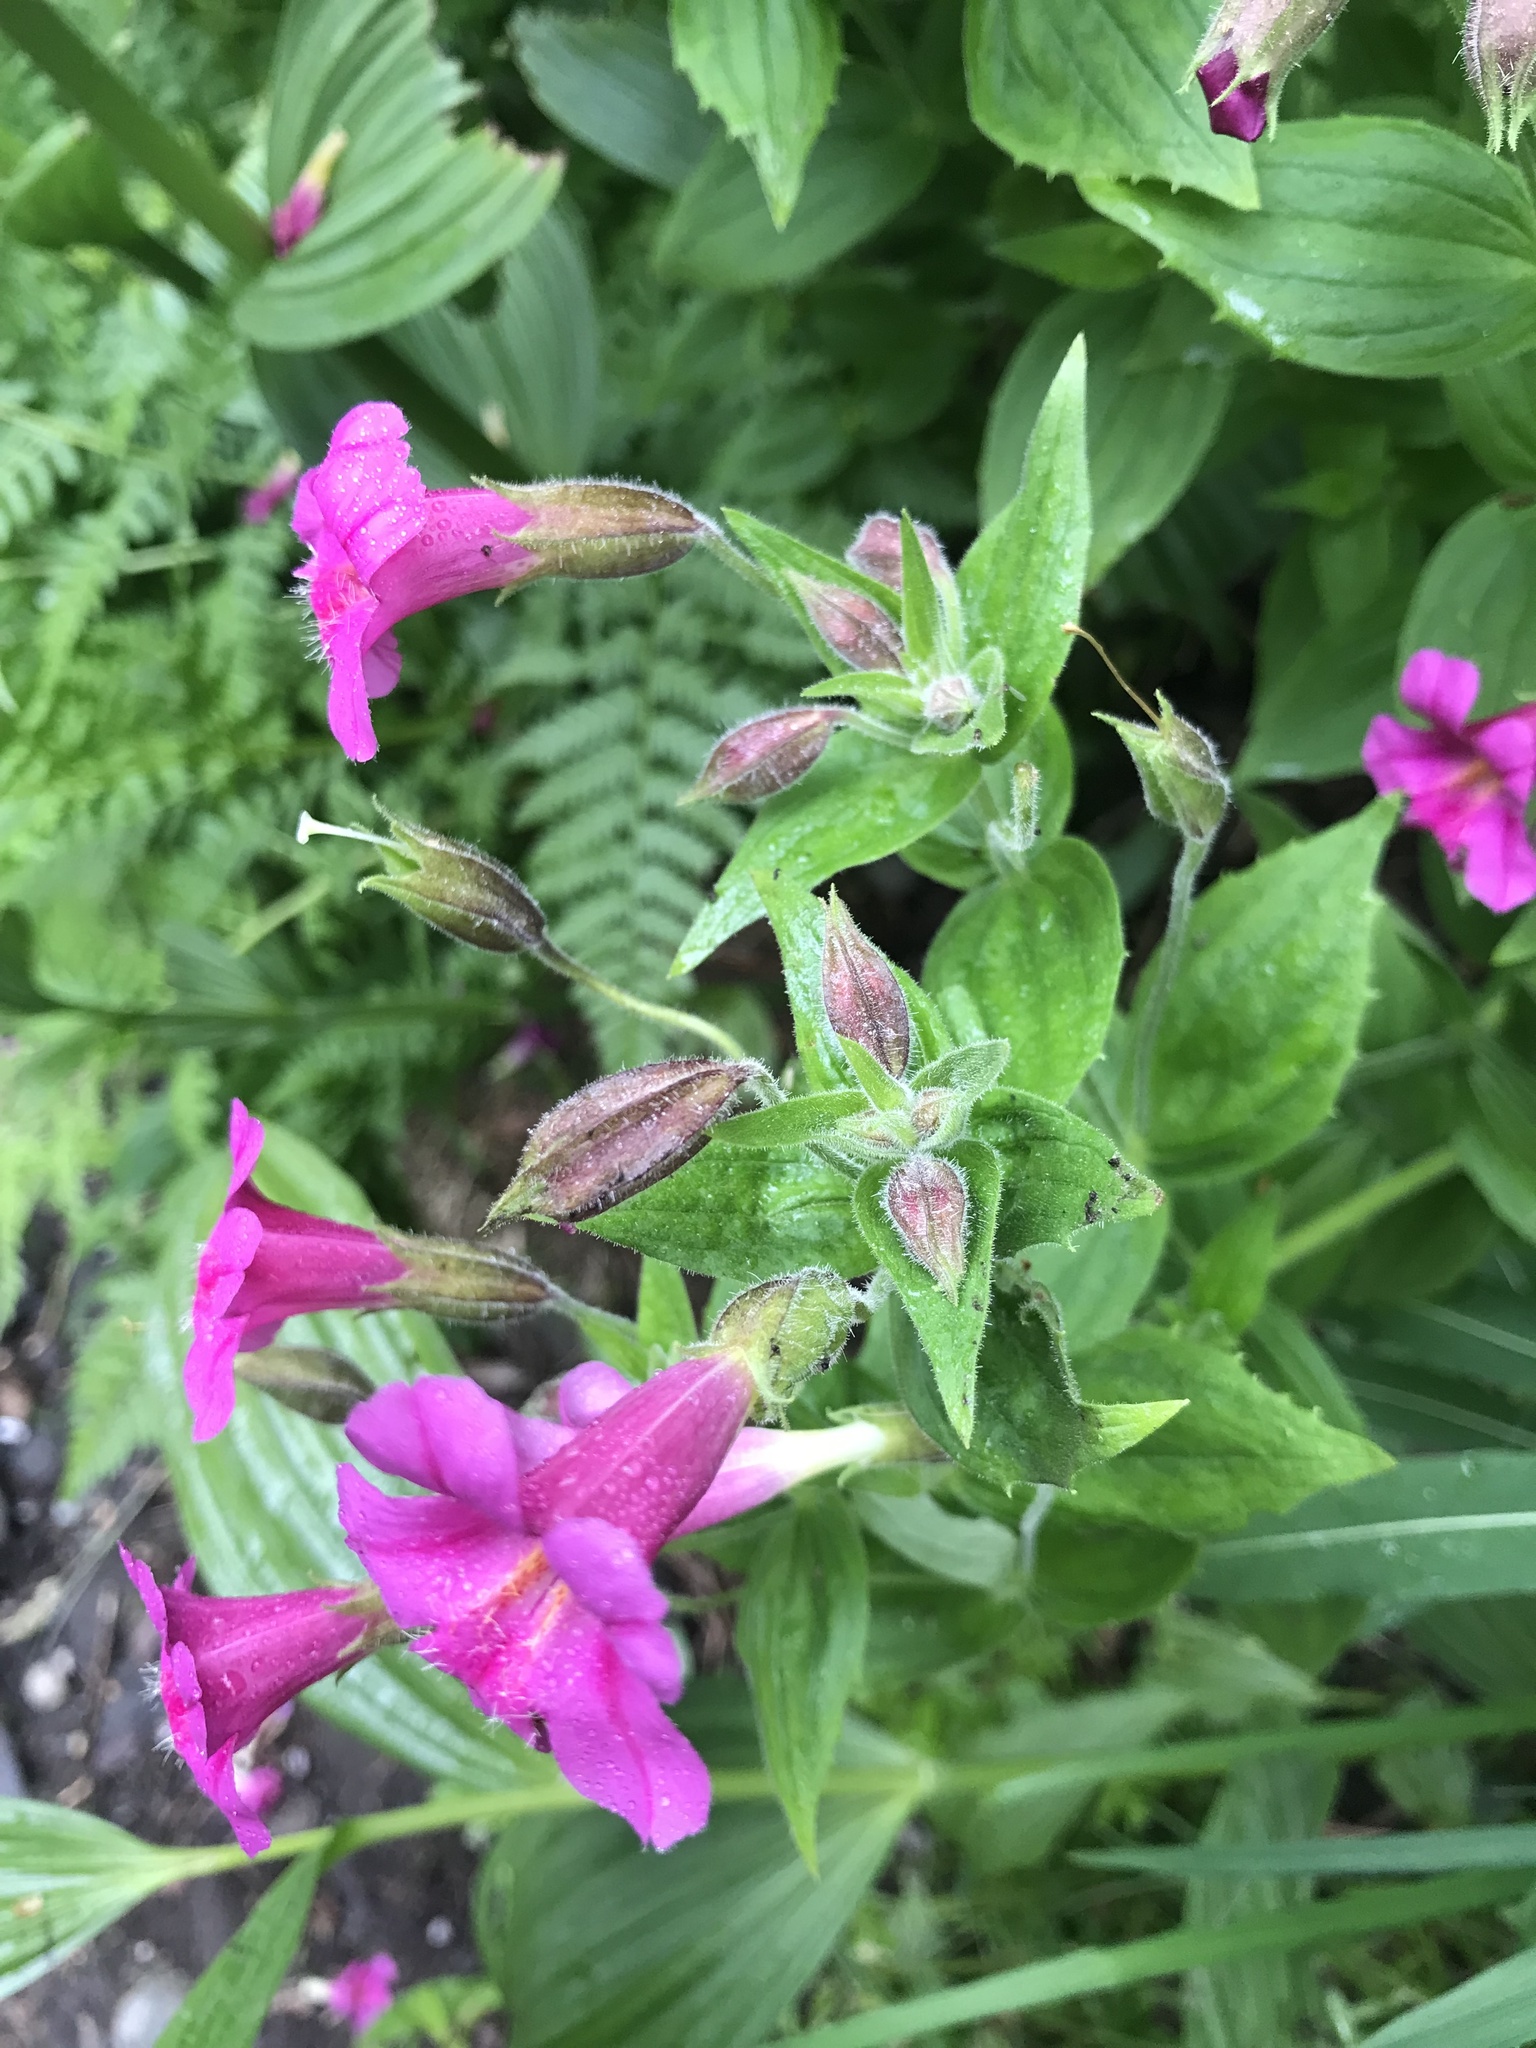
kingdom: Plantae
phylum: Tracheophyta
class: Magnoliopsida
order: Lamiales
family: Phrymaceae
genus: Erythranthe
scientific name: Erythranthe lewisii
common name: Lewis's monkey-flower
